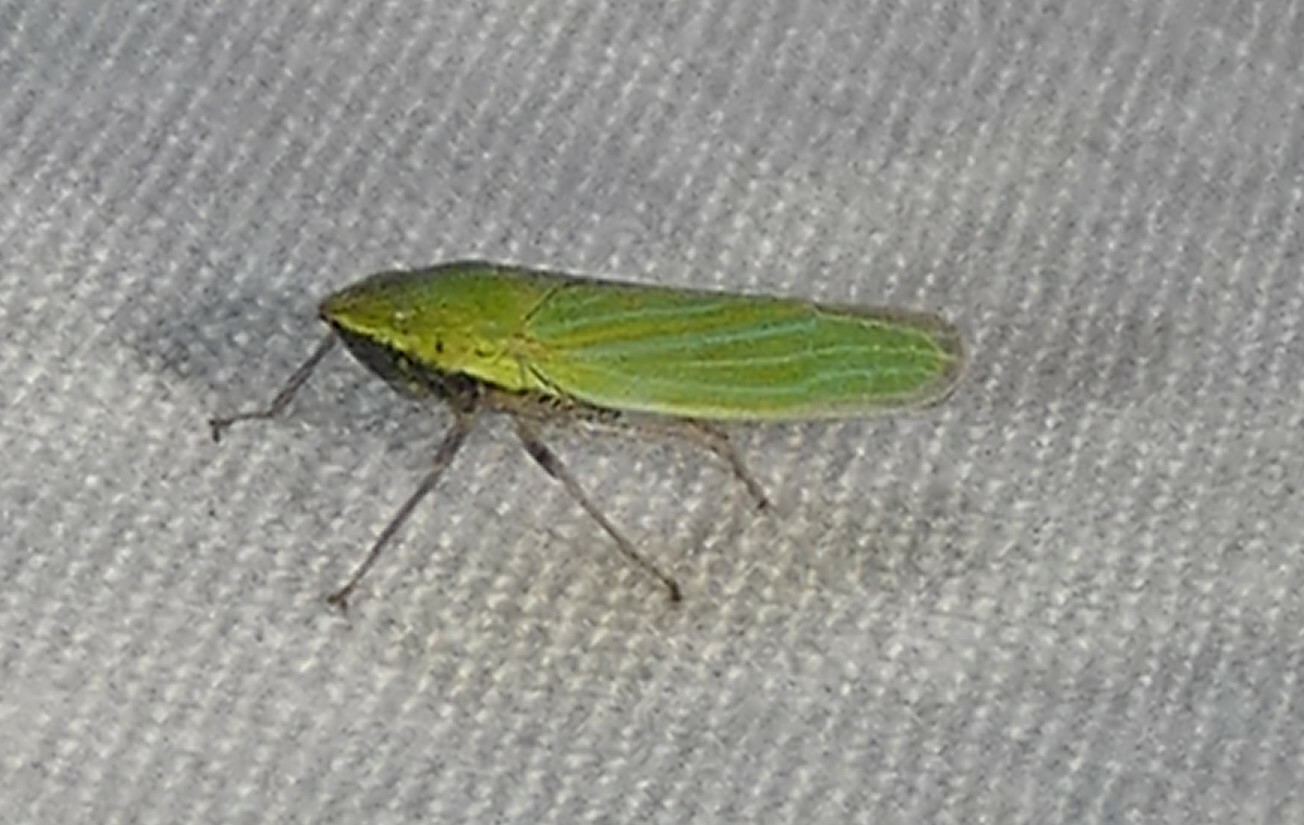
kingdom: Animalia
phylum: Arthropoda
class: Insecta
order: Hemiptera
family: Cicadellidae
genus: Draeculacephala
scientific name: Draeculacephala robinsoni
